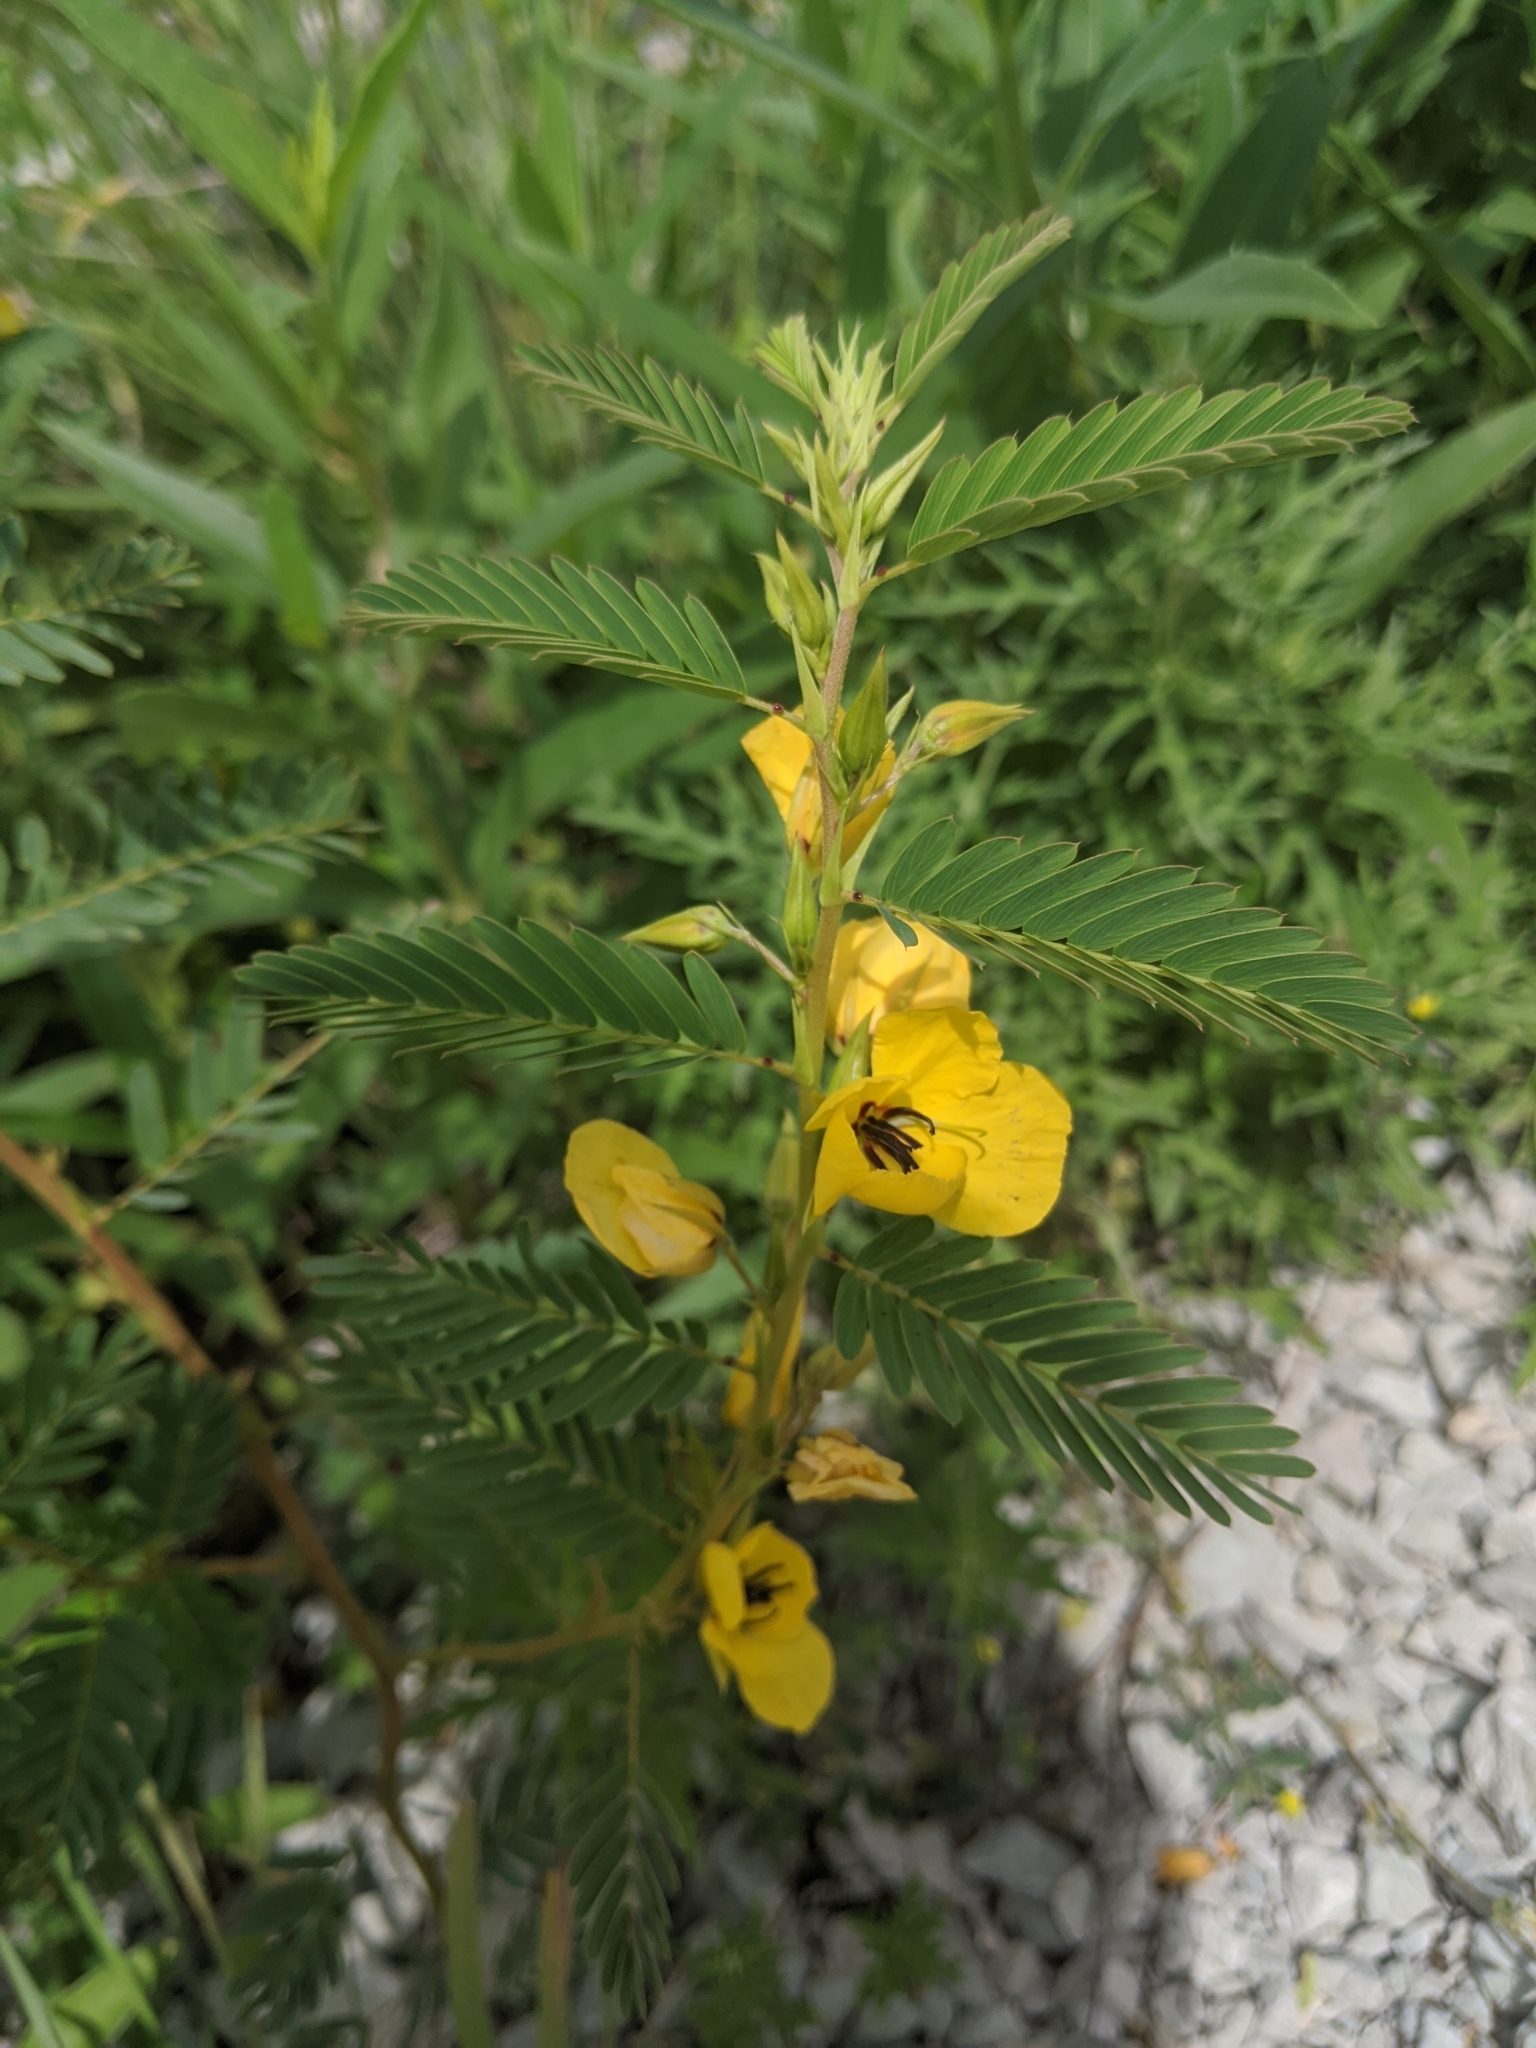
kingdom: Plantae
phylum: Tracheophyta
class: Magnoliopsida
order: Fabales
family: Fabaceae
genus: Chamaecrista
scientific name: Chamaecrista fasciculata
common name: Golden cassia
